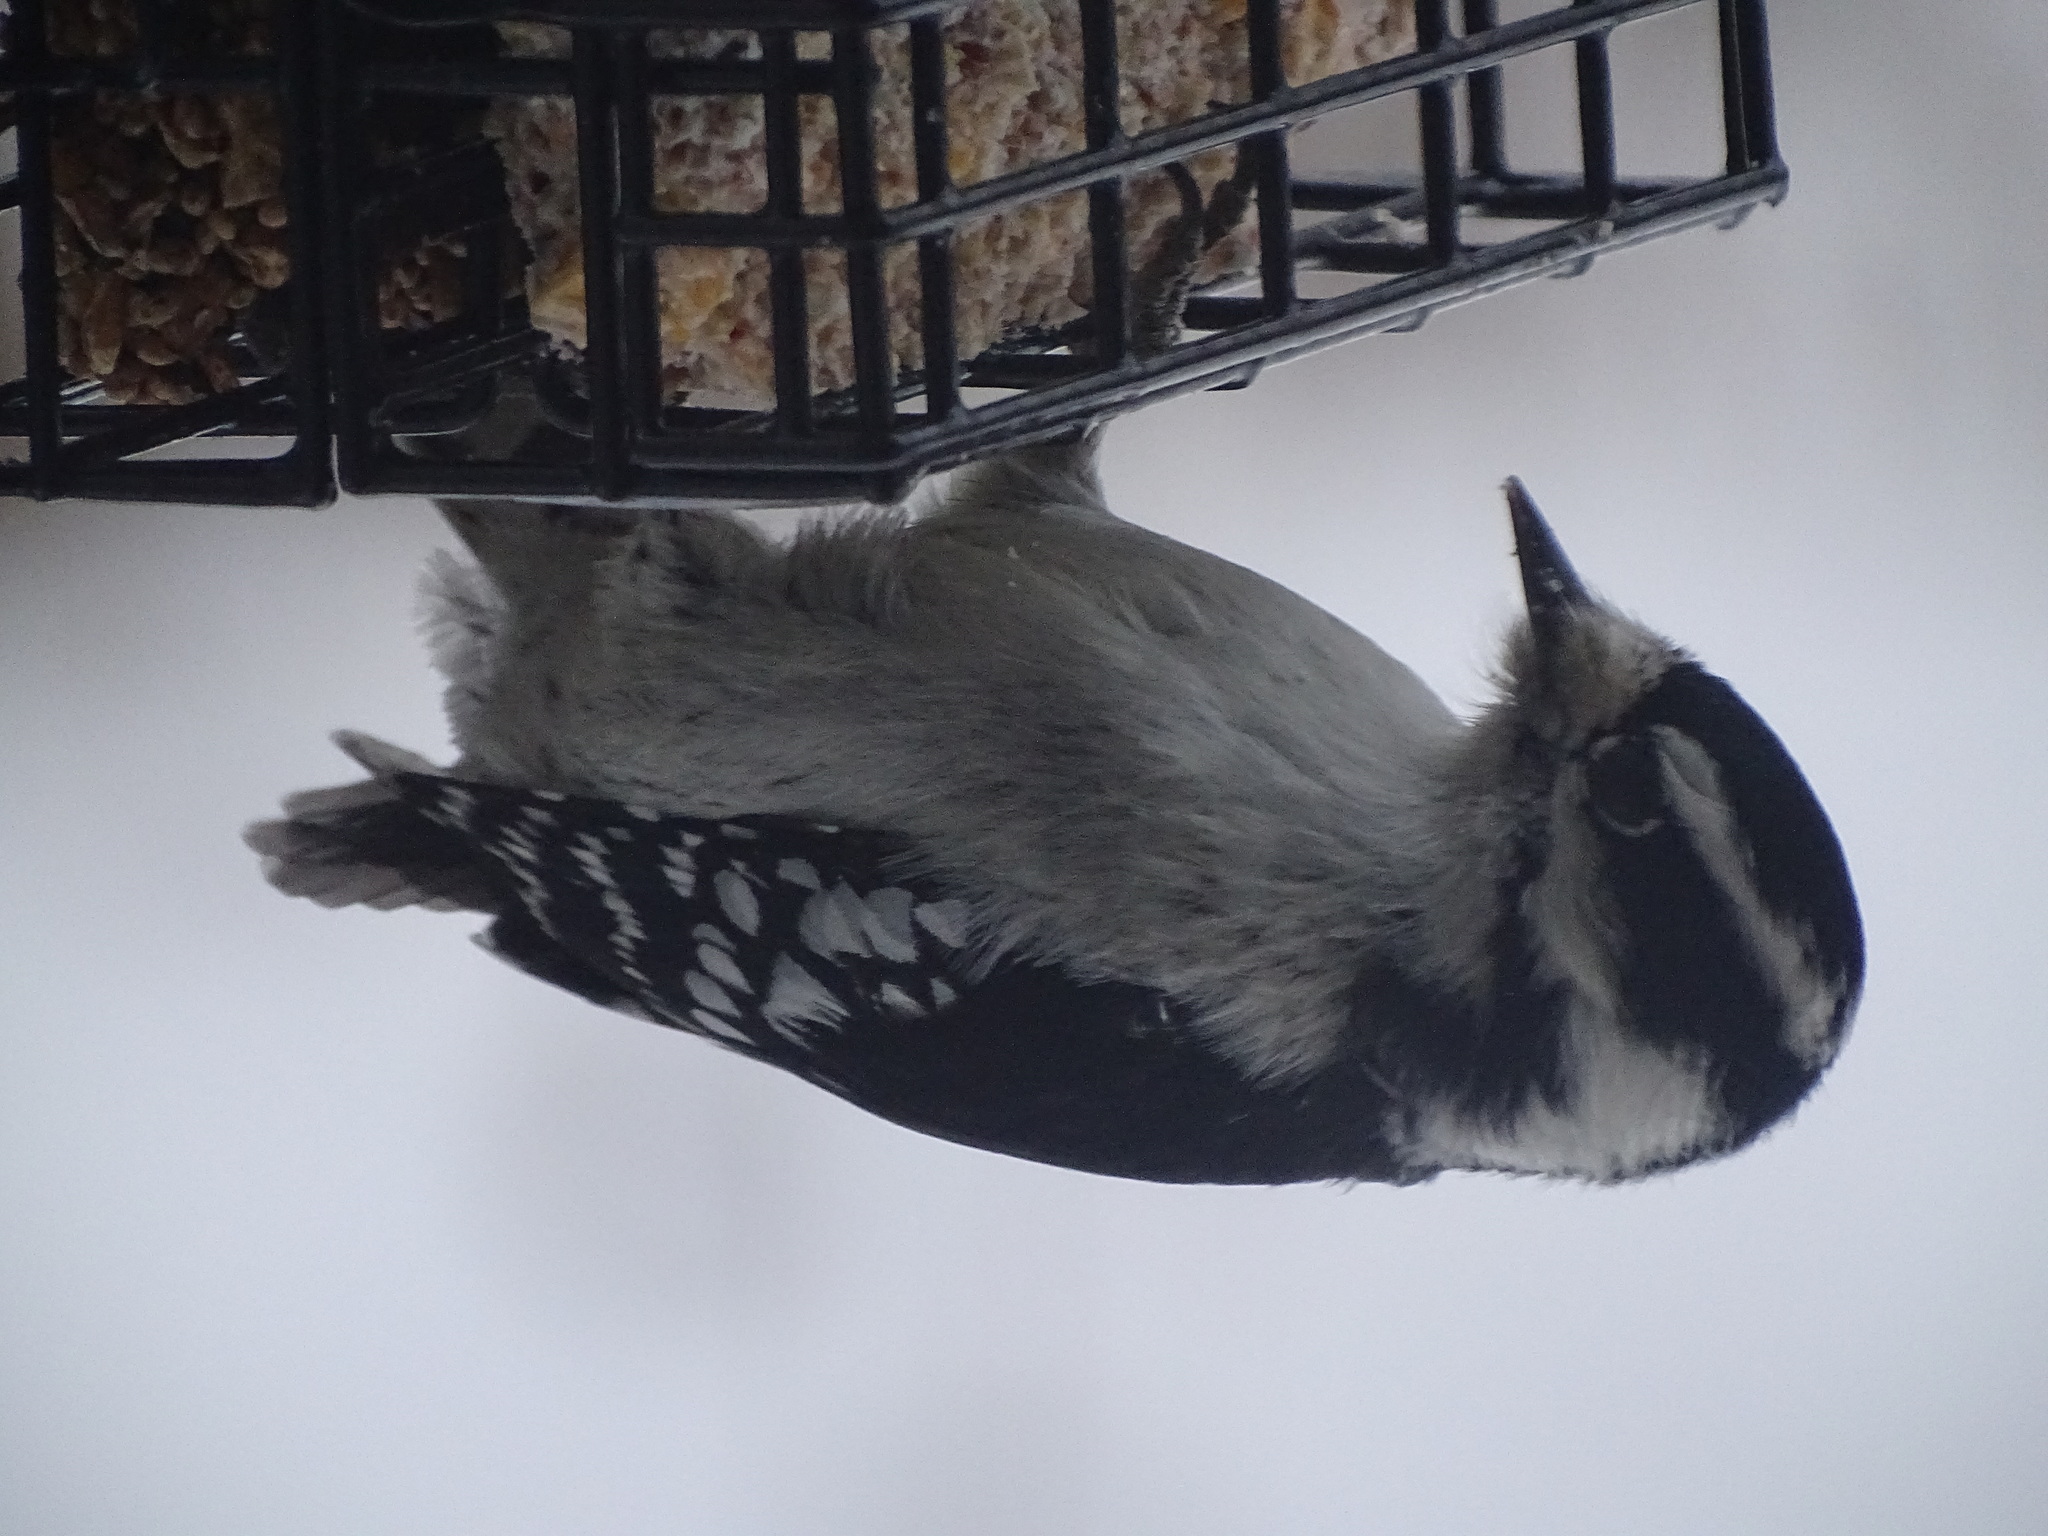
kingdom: Animalia
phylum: Chordata
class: Aves
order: Piciformes
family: Picidae
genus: Dryobates
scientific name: Dryobates pubescens
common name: Downy woodpecker
